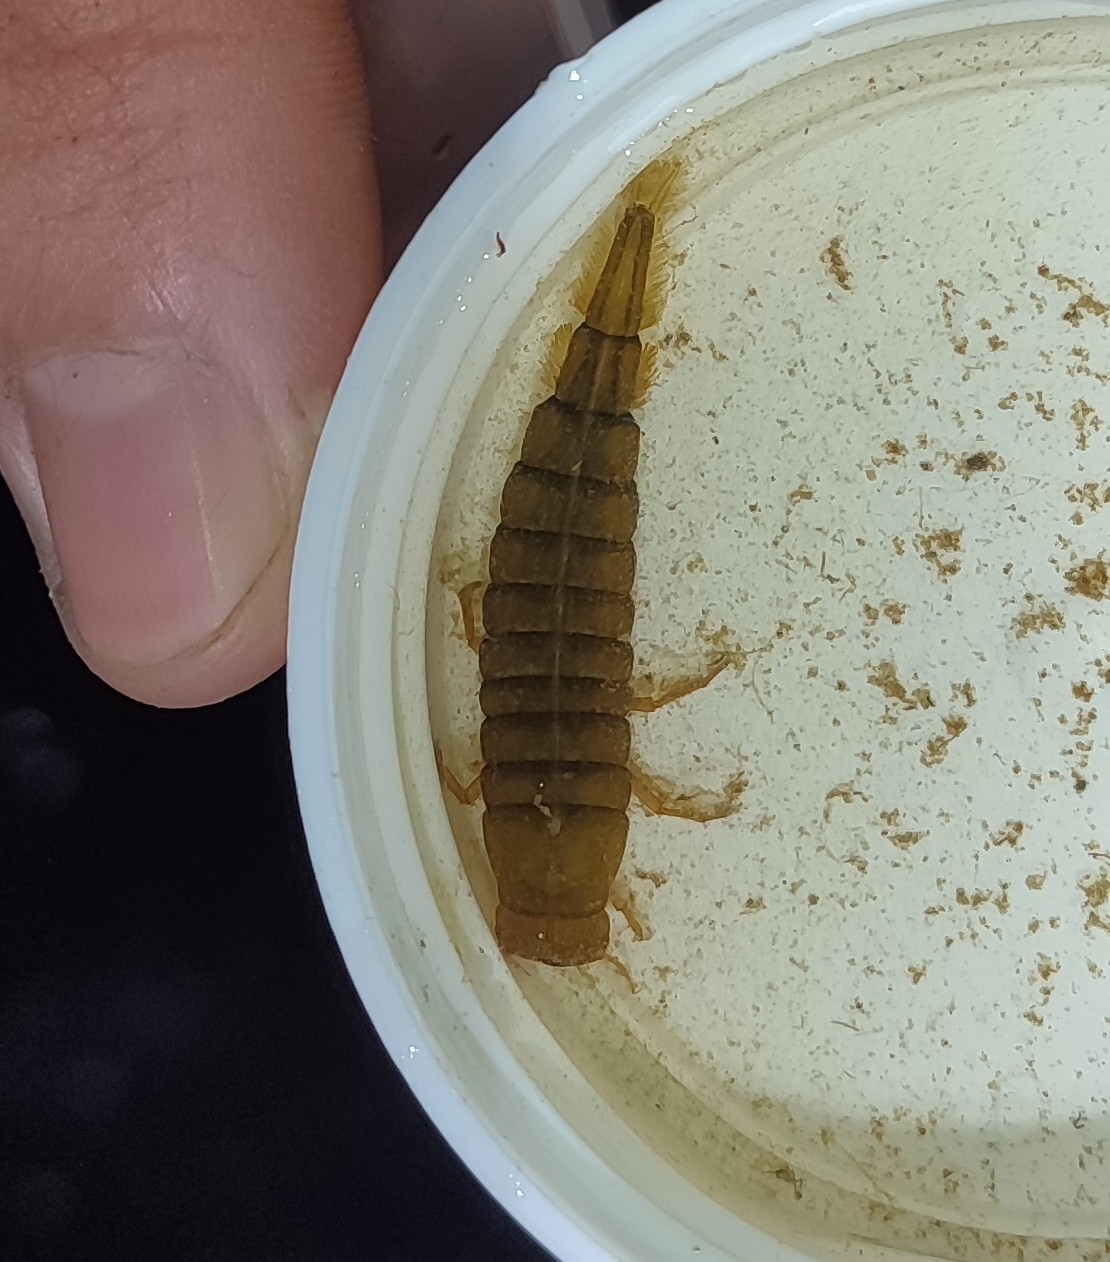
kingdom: Animalia
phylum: Arthropoda
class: Insecta
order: Coleoptera
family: Dytiscidae
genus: Dytiscus
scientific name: Dytiscus
